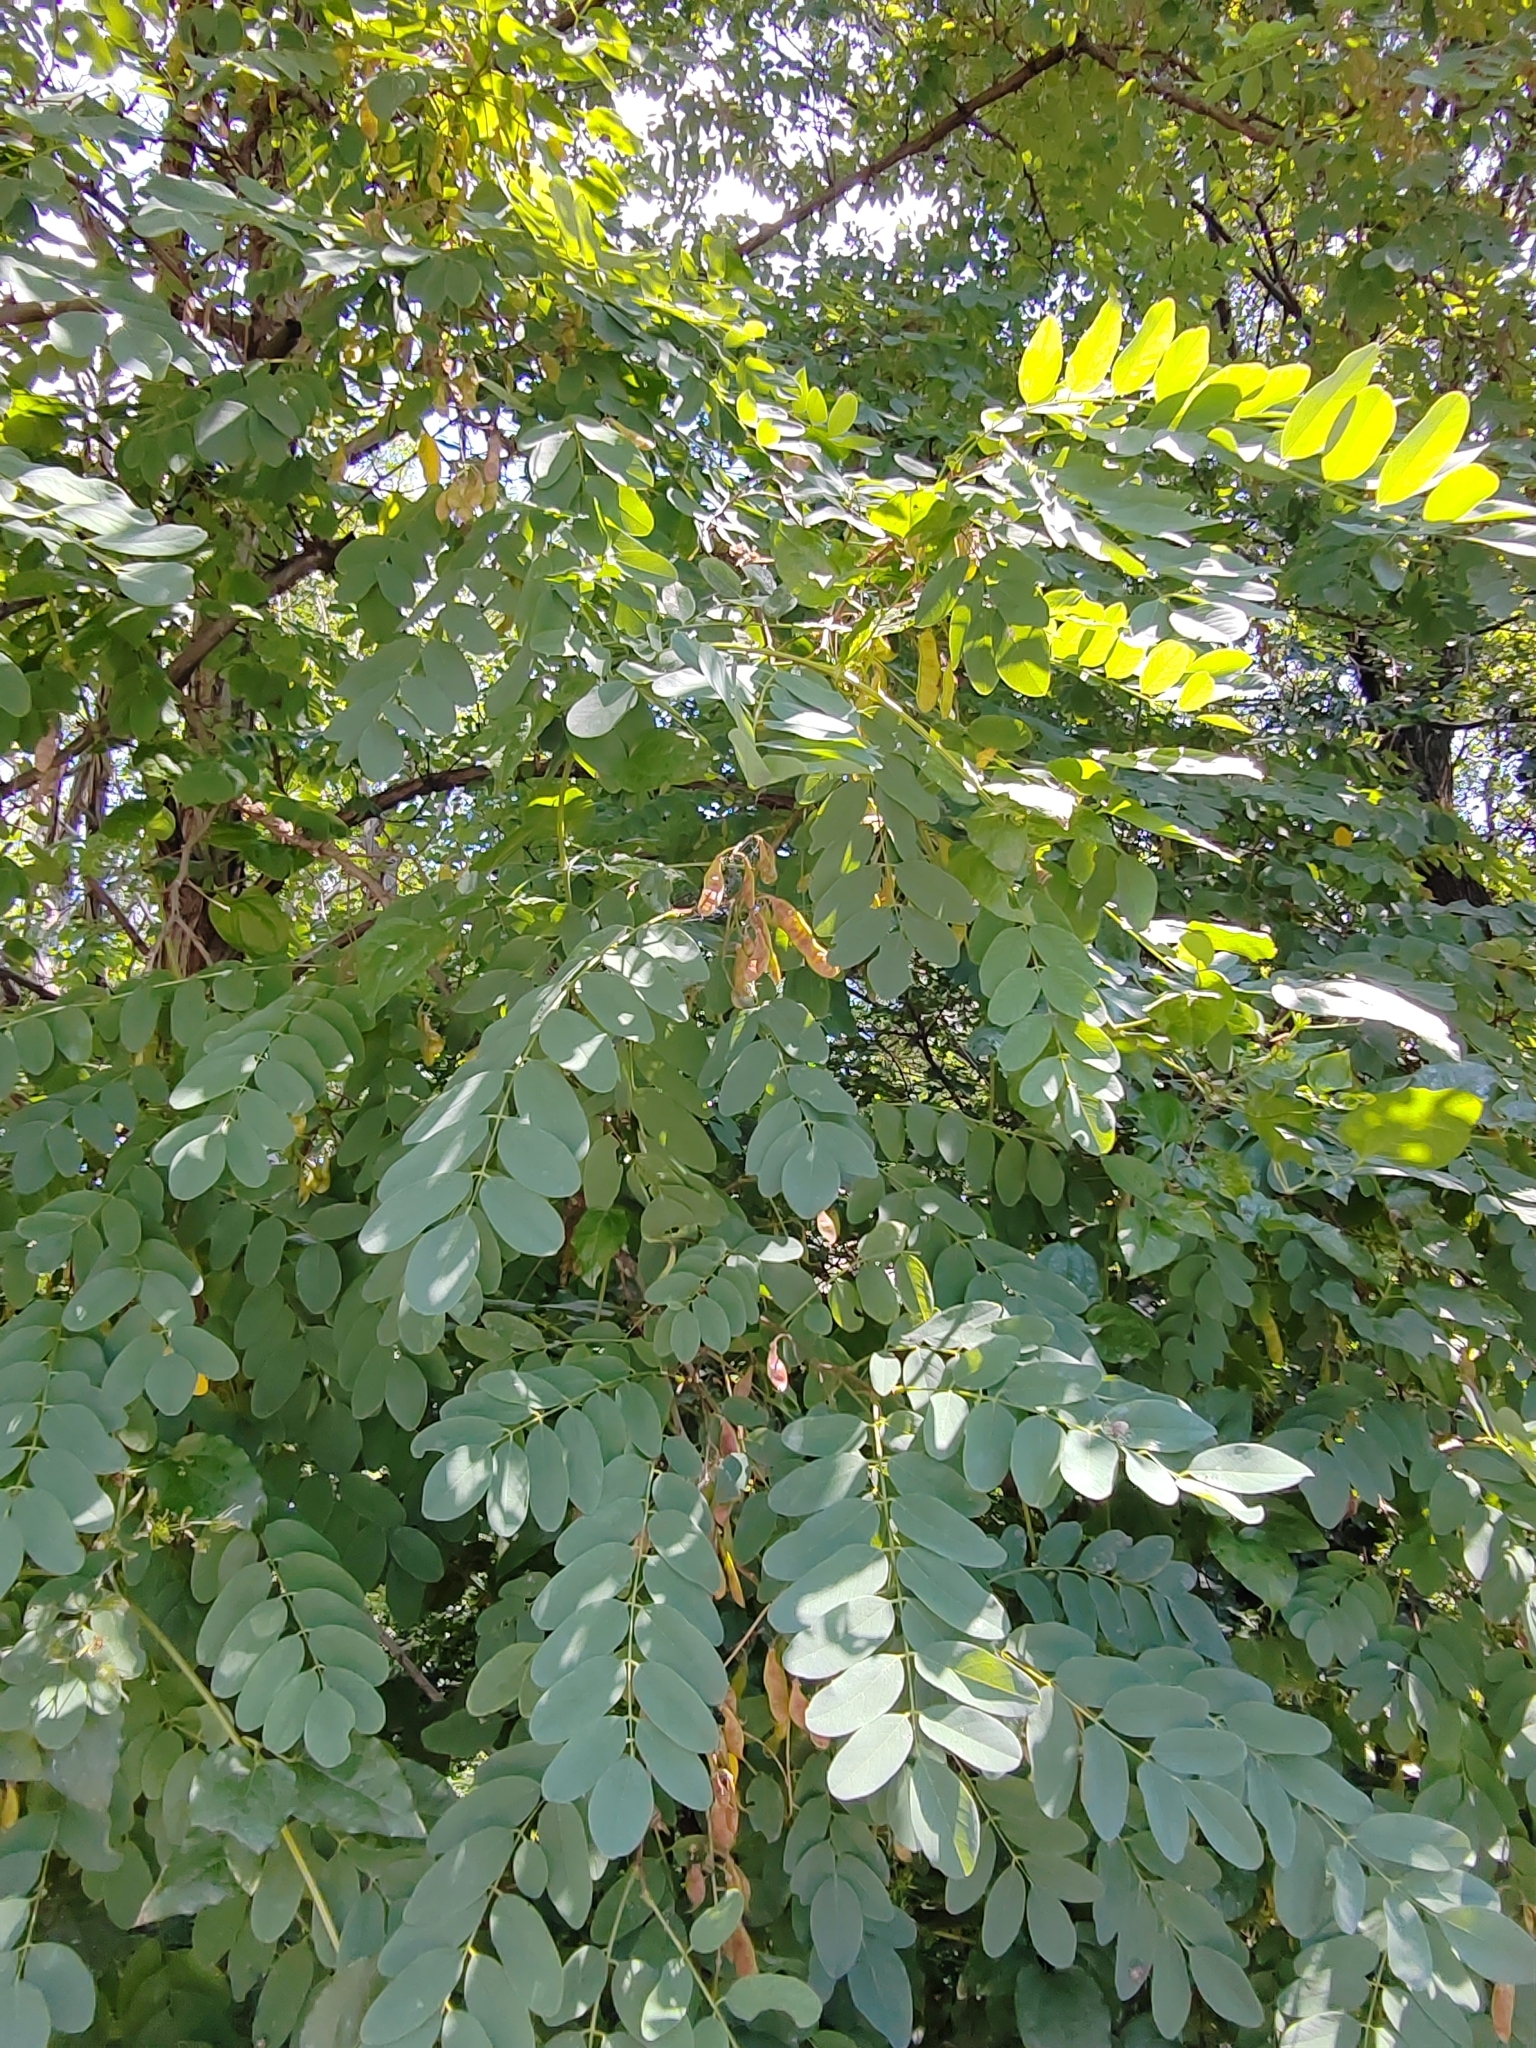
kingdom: Plantae
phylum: Tracheophyta
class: Magnoliopsida
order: Fabales
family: Fabaceae
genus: Robinia
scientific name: Robinia pseudoacacia
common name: Black locust
